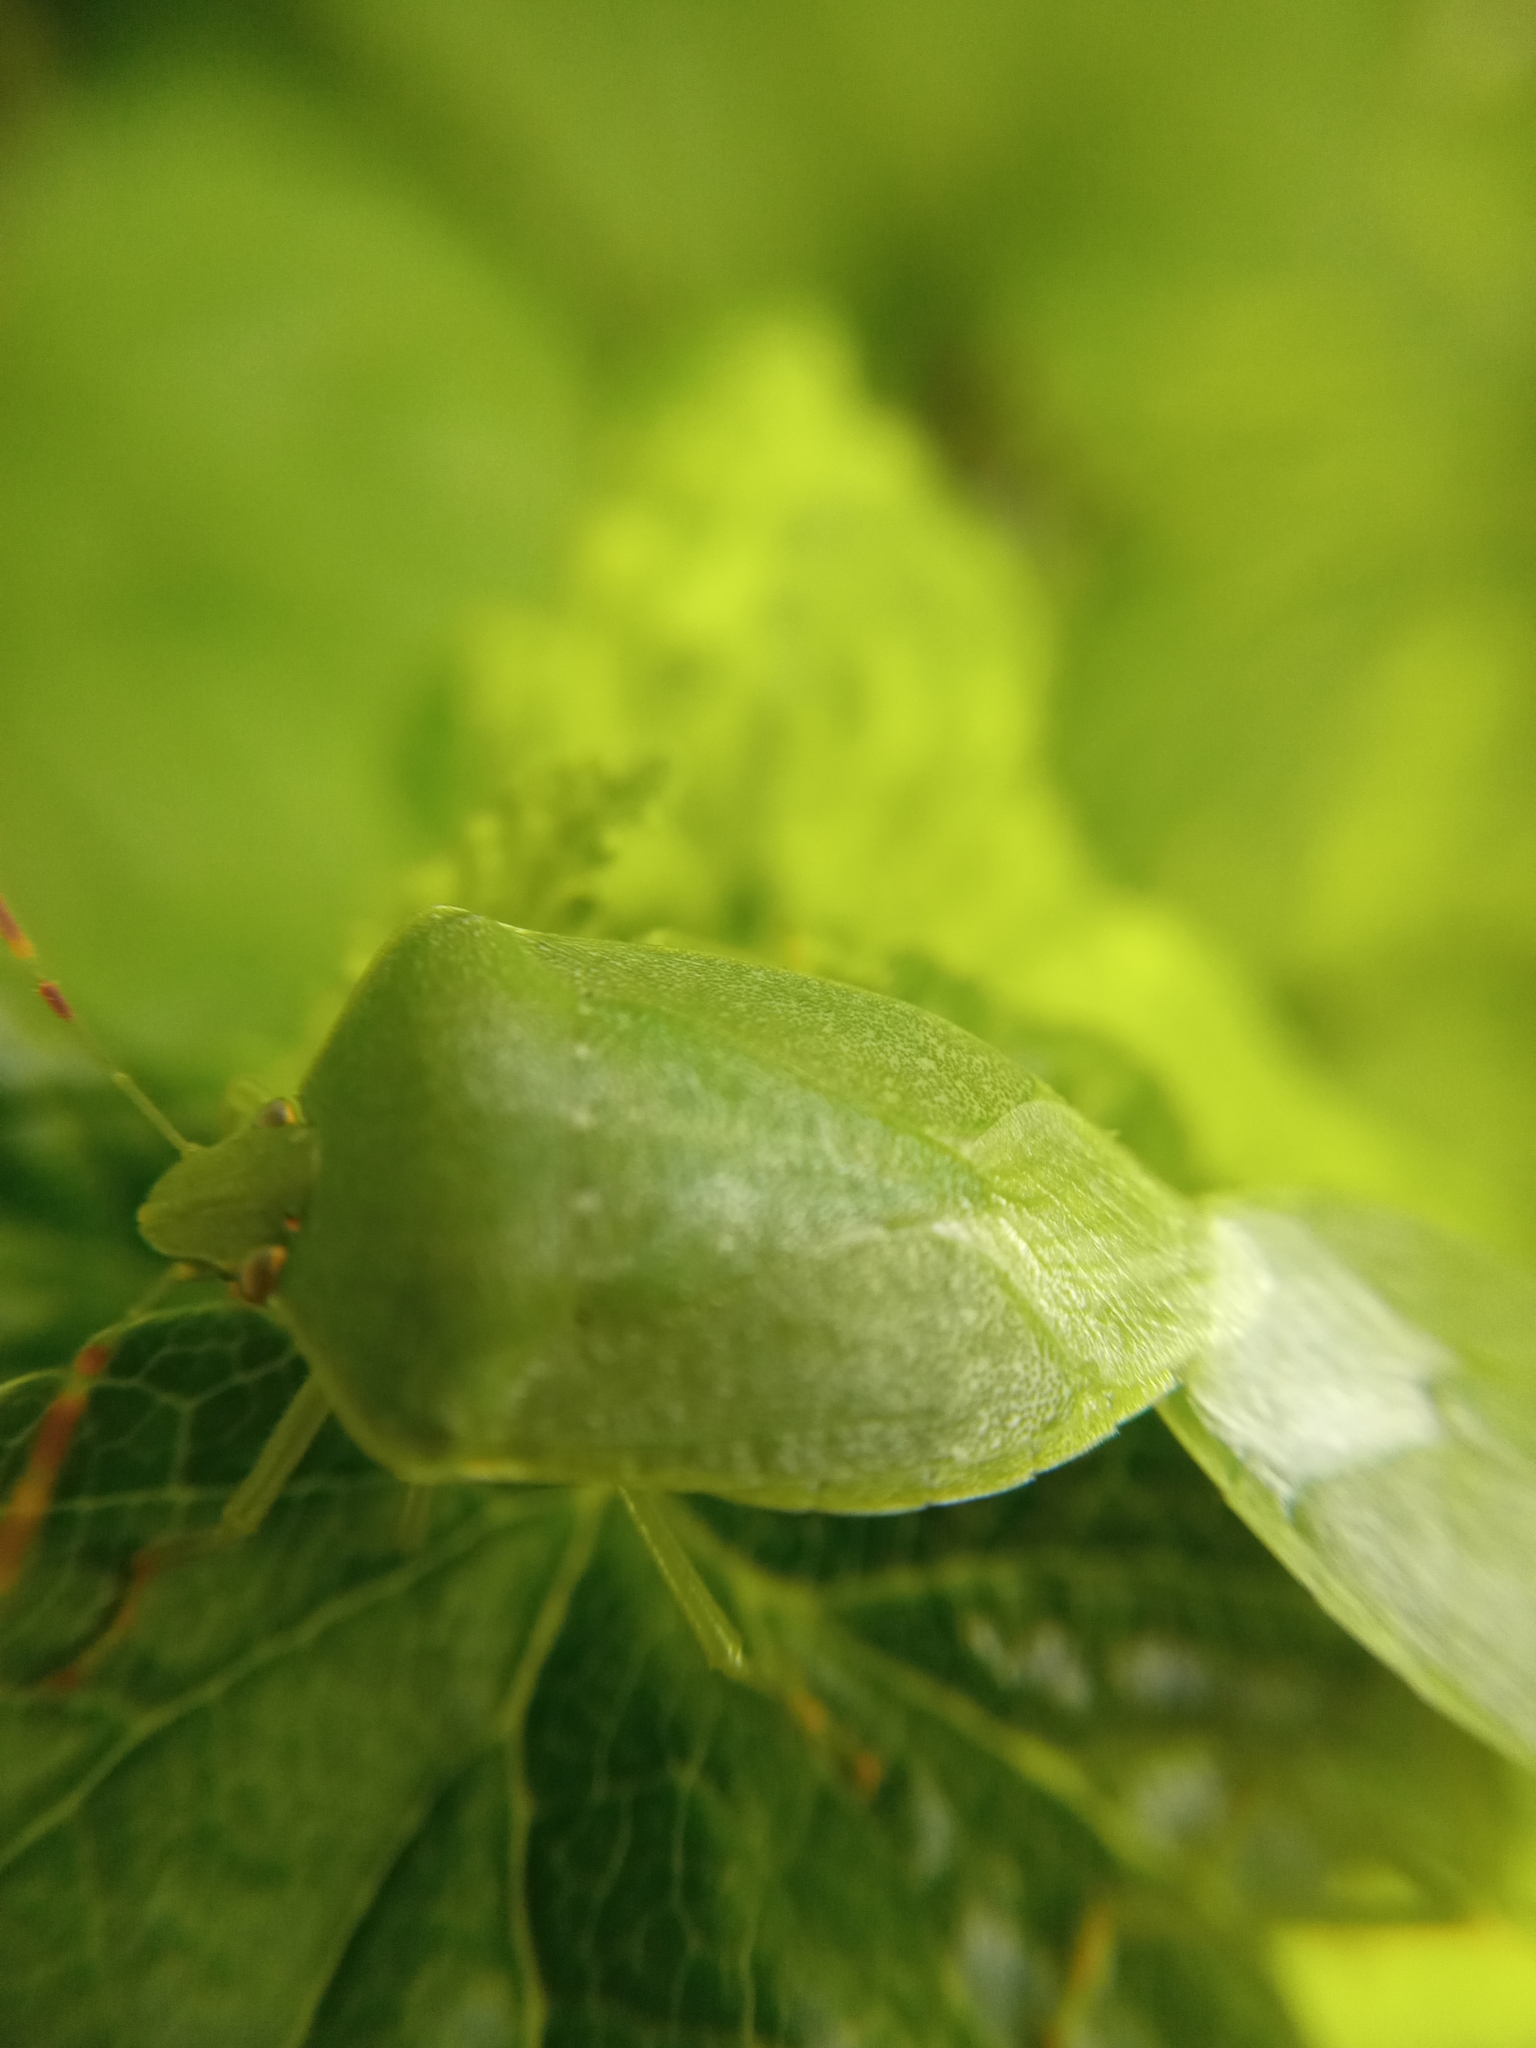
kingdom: Animalia
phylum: Arthropoda
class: Insecta
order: Hemiptera
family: Pentatomidae
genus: Nezara
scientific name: Nezara viridula
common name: Southern green stink bug
